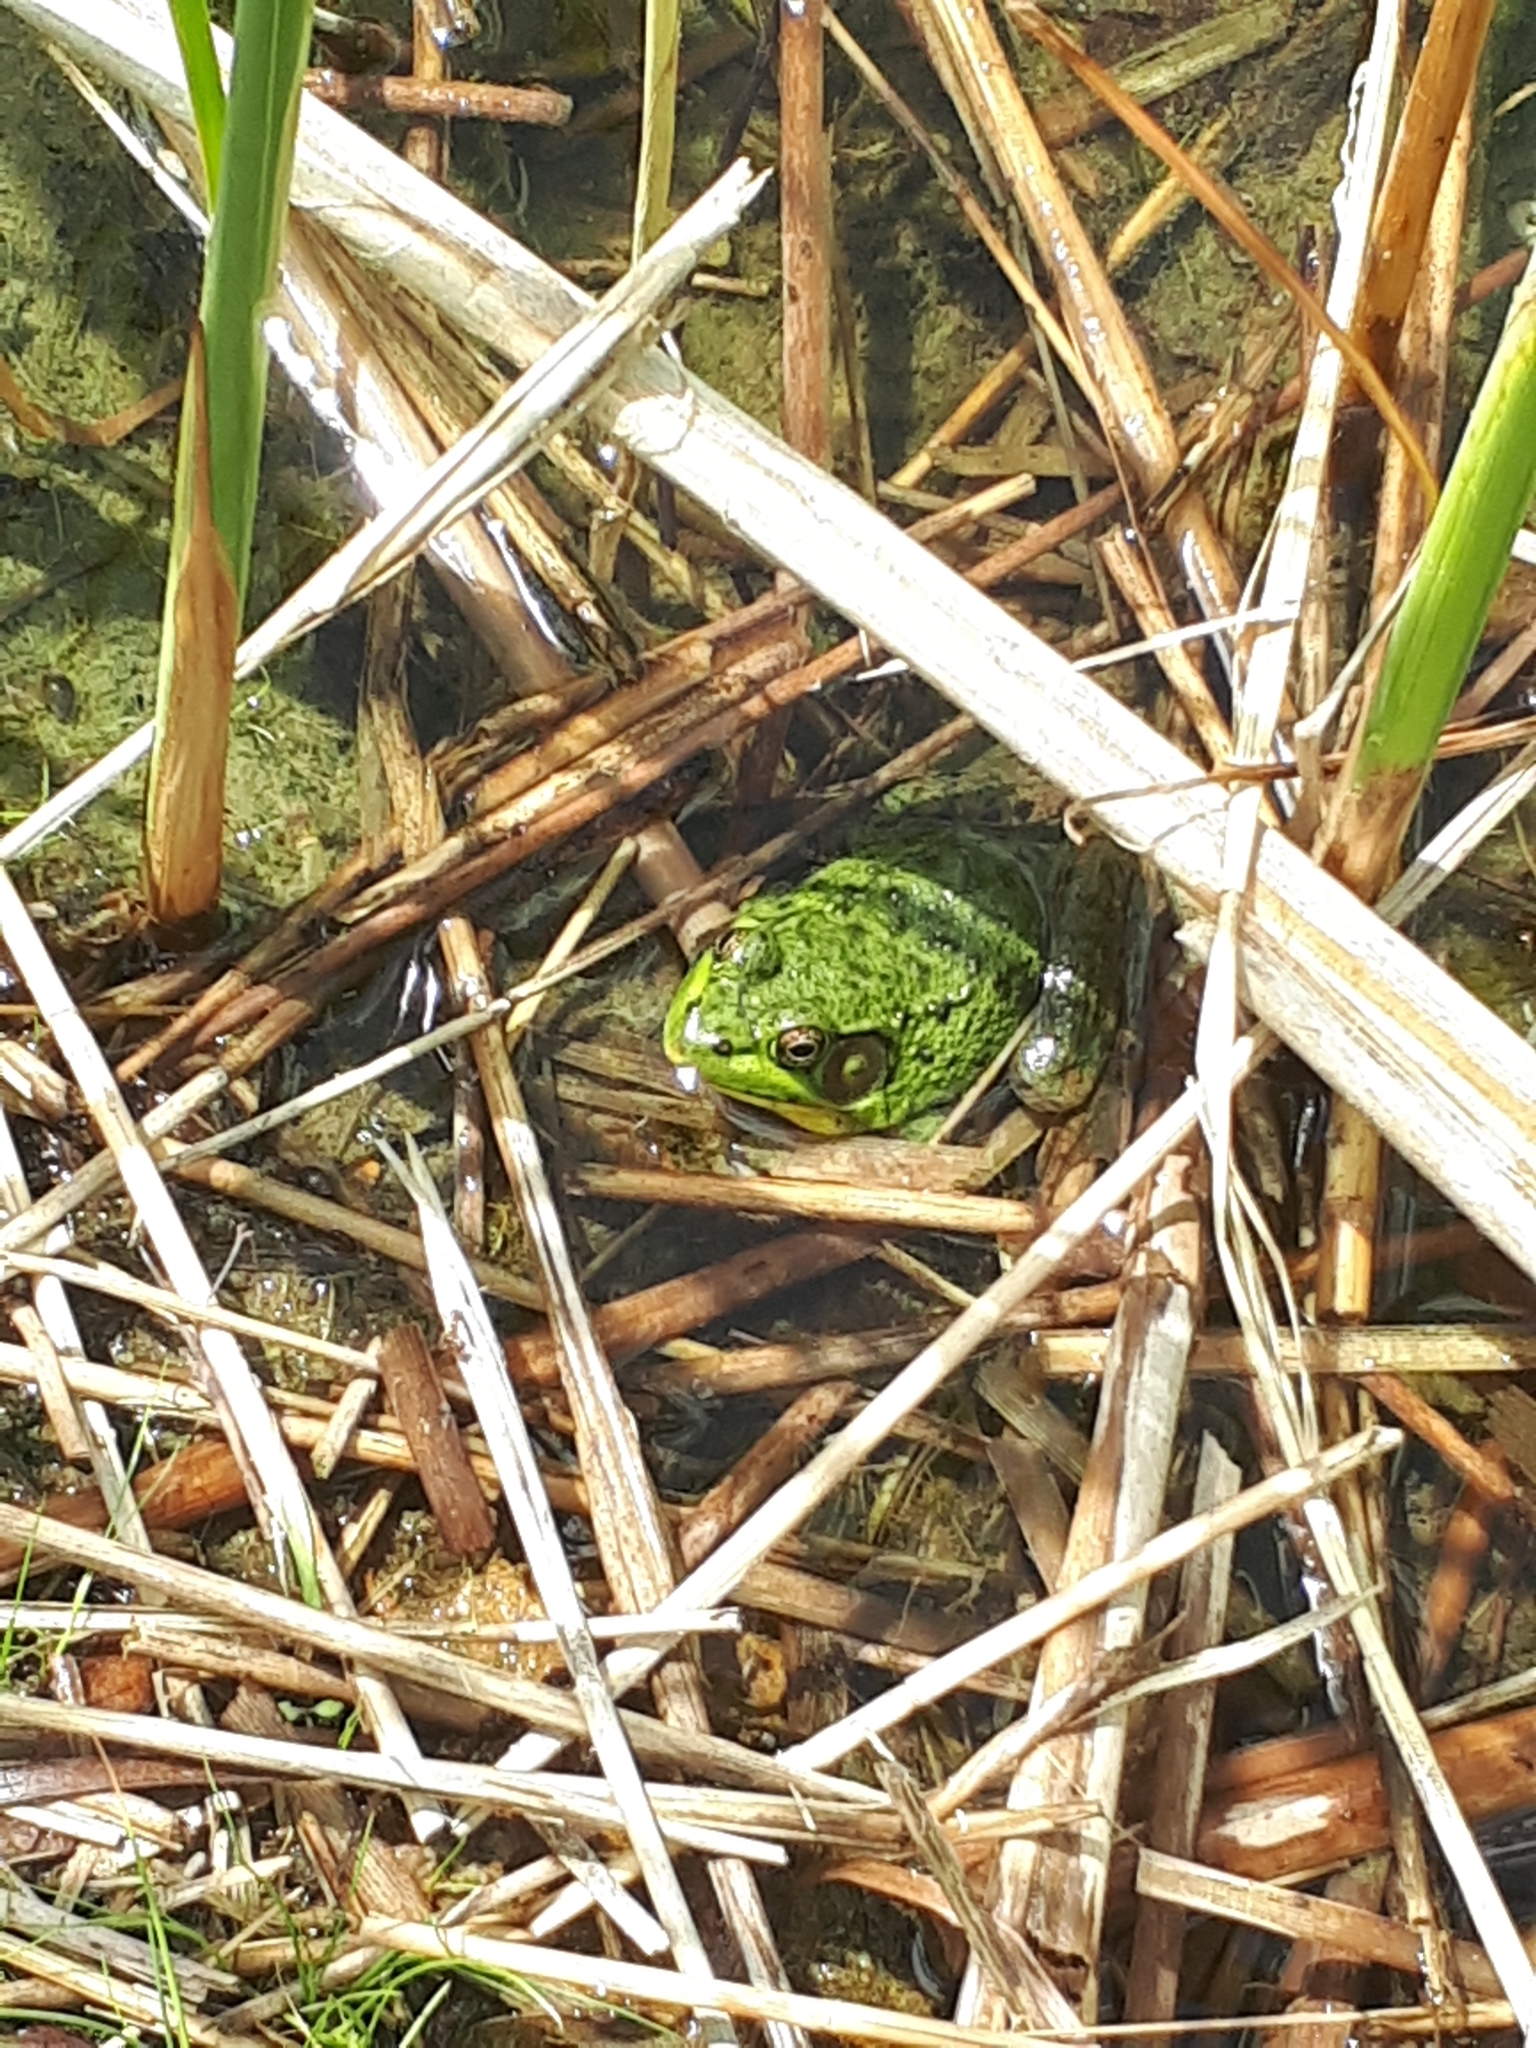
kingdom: Animalia
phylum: Chordata
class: Amphibia
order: Anura
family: Ranidae
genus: Lithobates
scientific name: Lithobates clamitans
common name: Green frog
